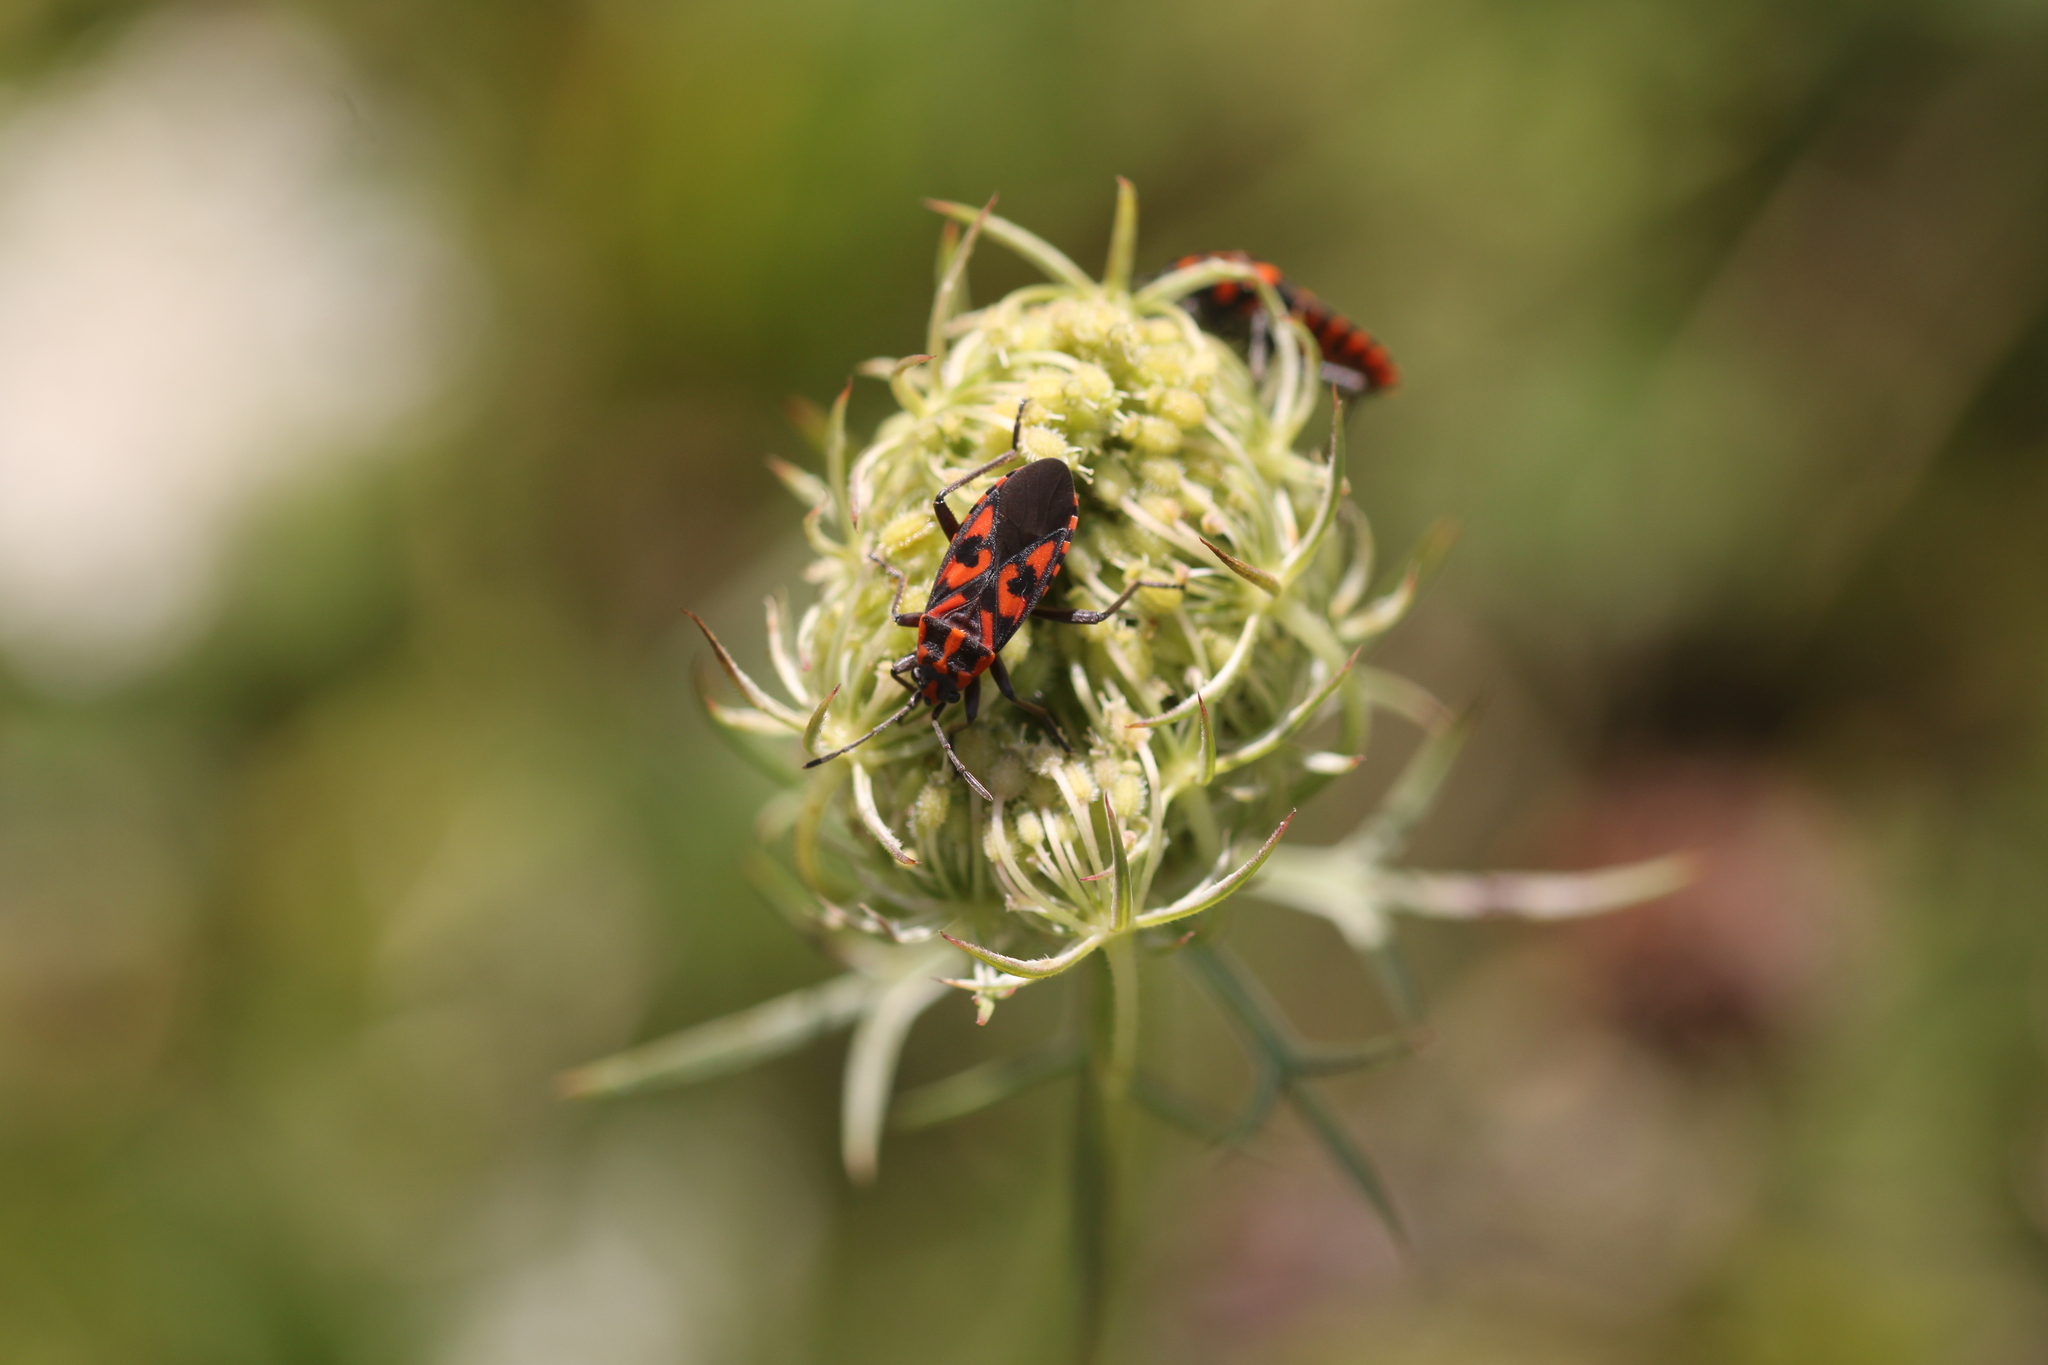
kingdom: Animalia
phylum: Arthropoda
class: Insecta
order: Hemiptera
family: Lygaeidae
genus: Spilostethus
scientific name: Spilostethus saxatilis
